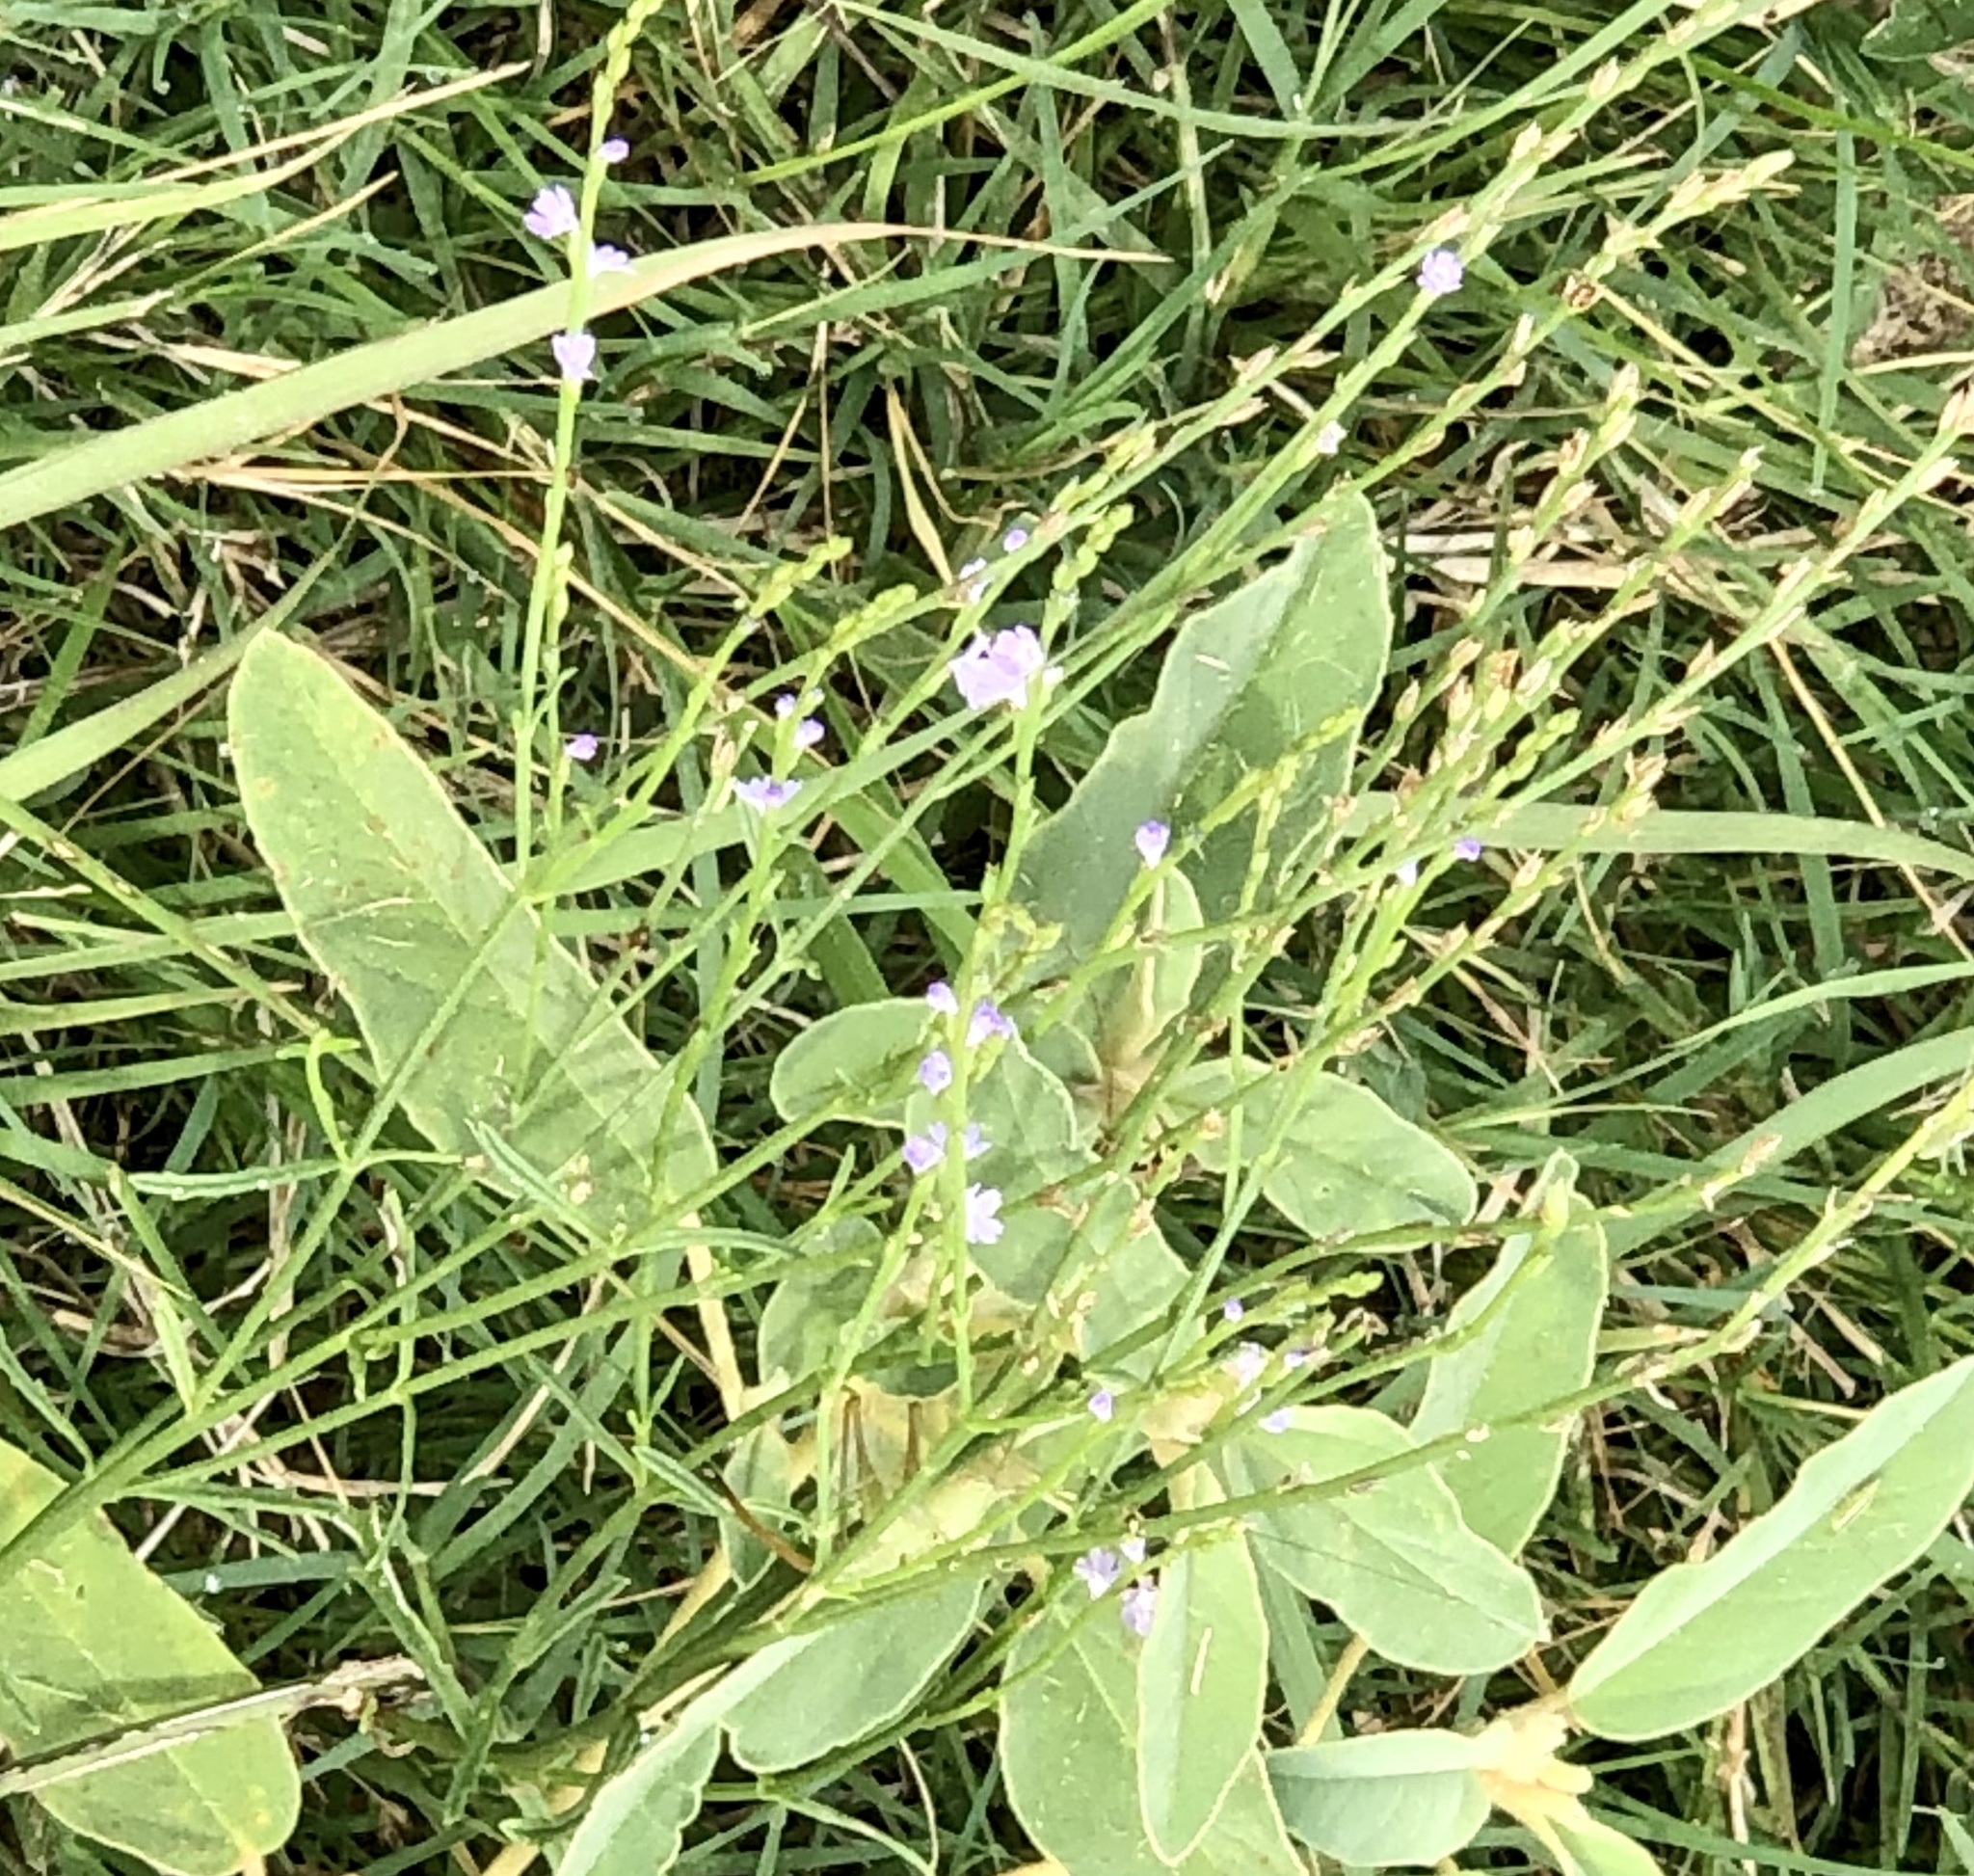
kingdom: Plantae
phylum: Tracheophyta
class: Magnoliopsida
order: Lamiales
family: Verbenaceae
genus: Verbena
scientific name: Verbena halei
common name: Texas vervain
